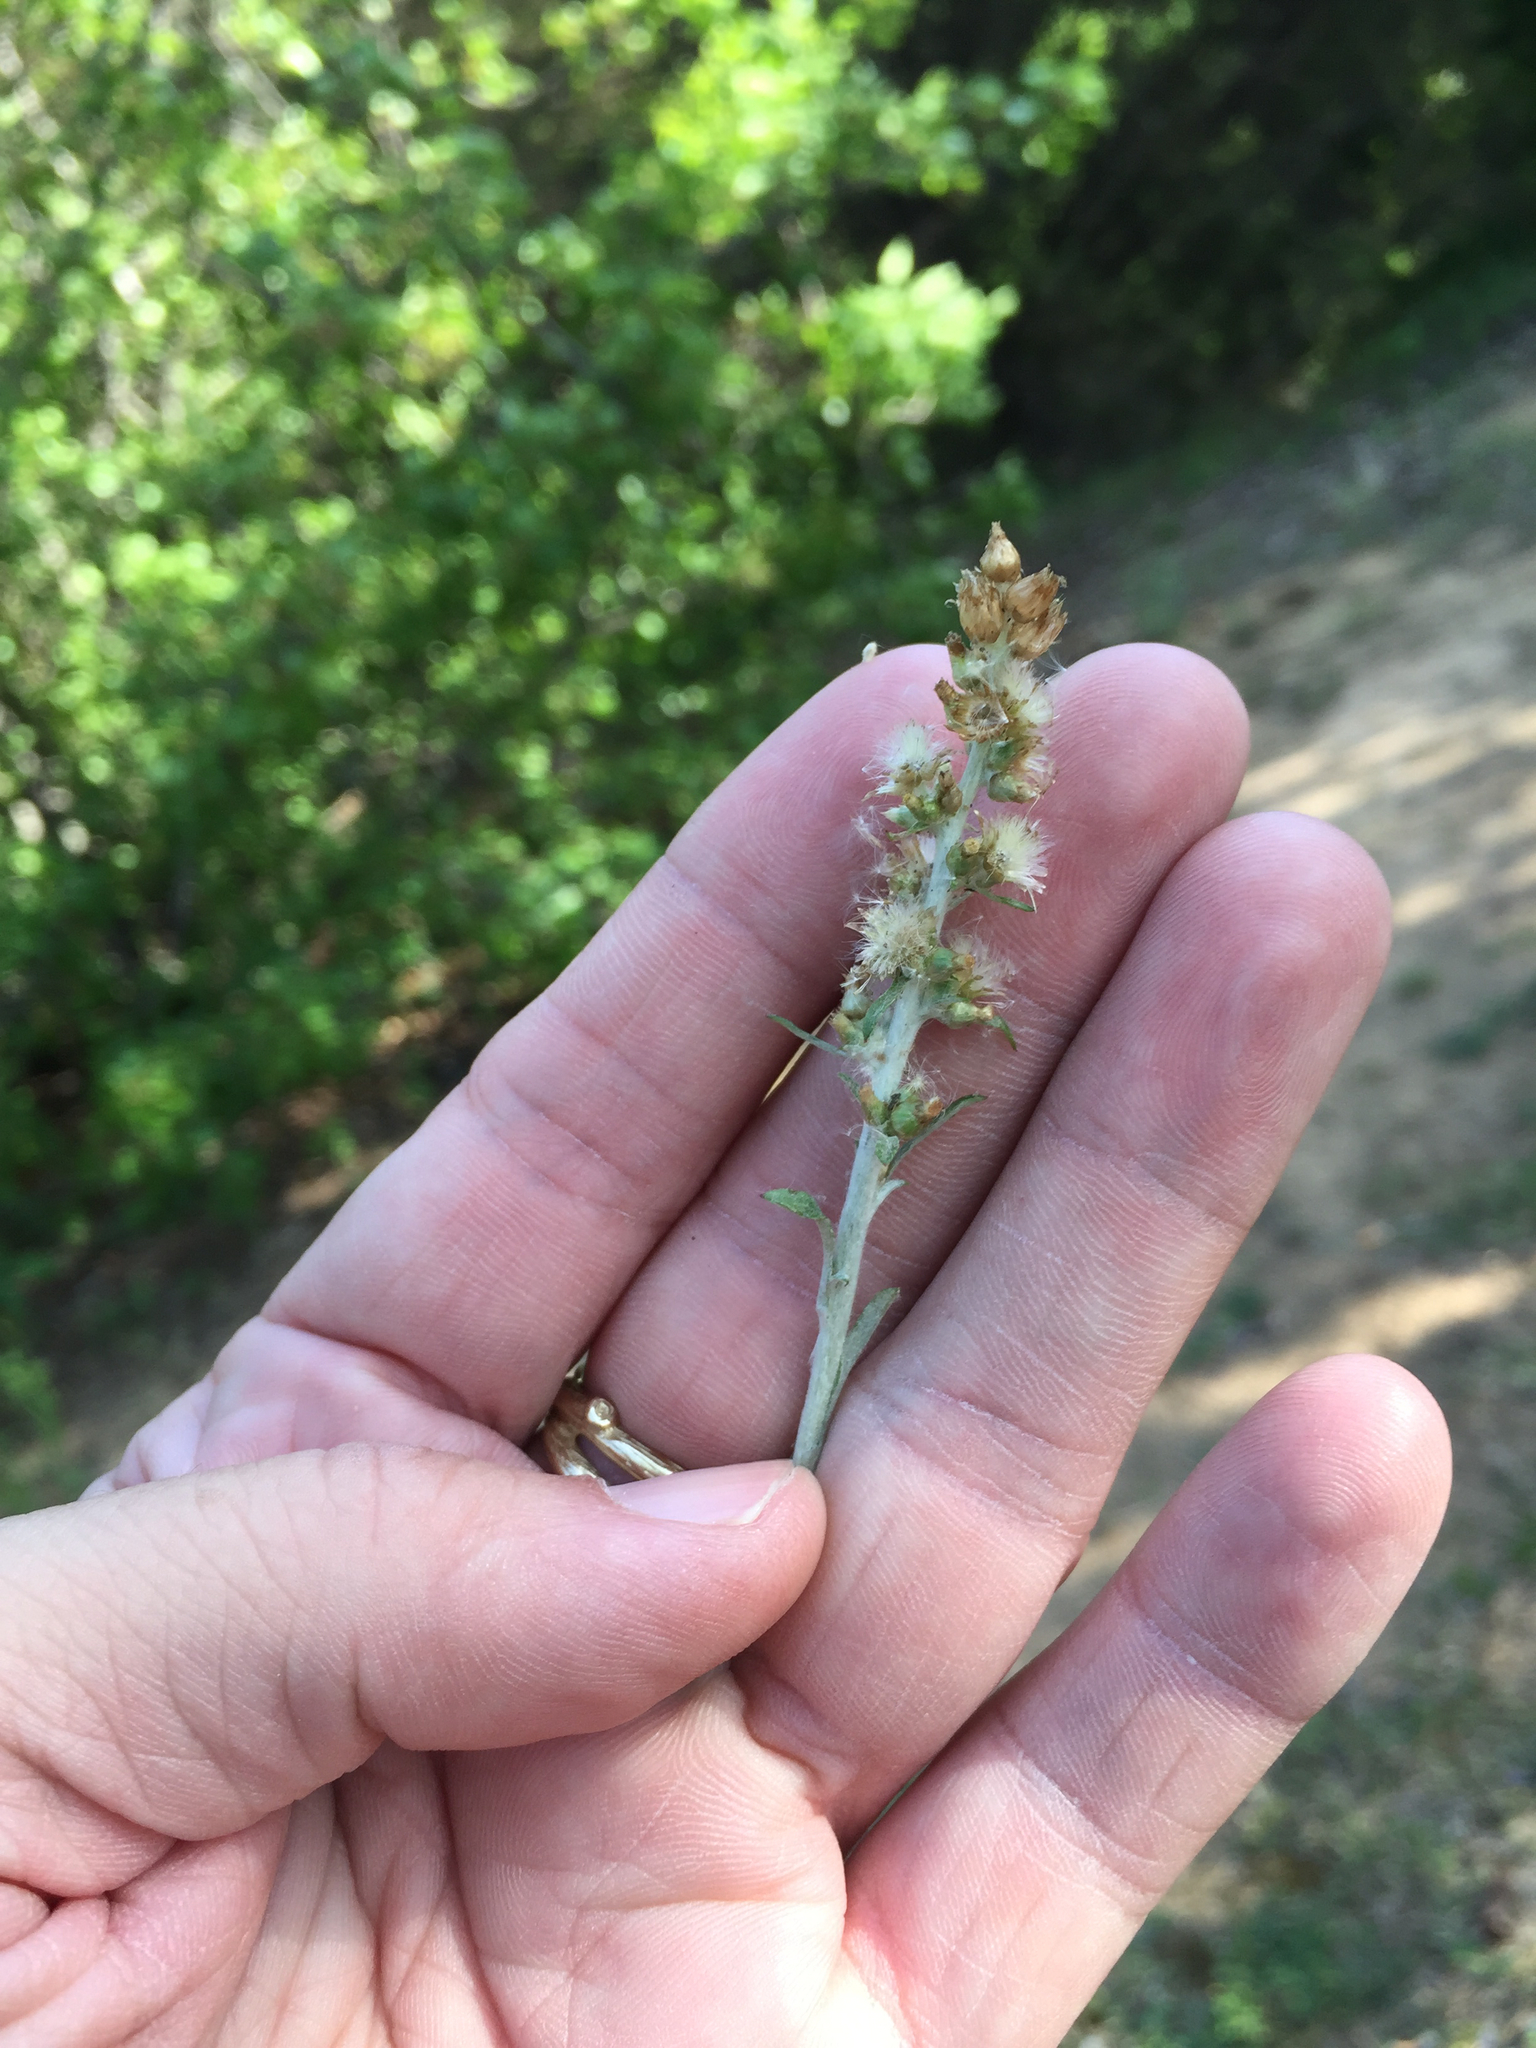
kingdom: Plantae
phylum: Tracheophyta
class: Magnoliopsida
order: Asterales
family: Asteraceae
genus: Gamochaeta
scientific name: Gamochaeta pensylvanica
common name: Pennsylvania everlasting
